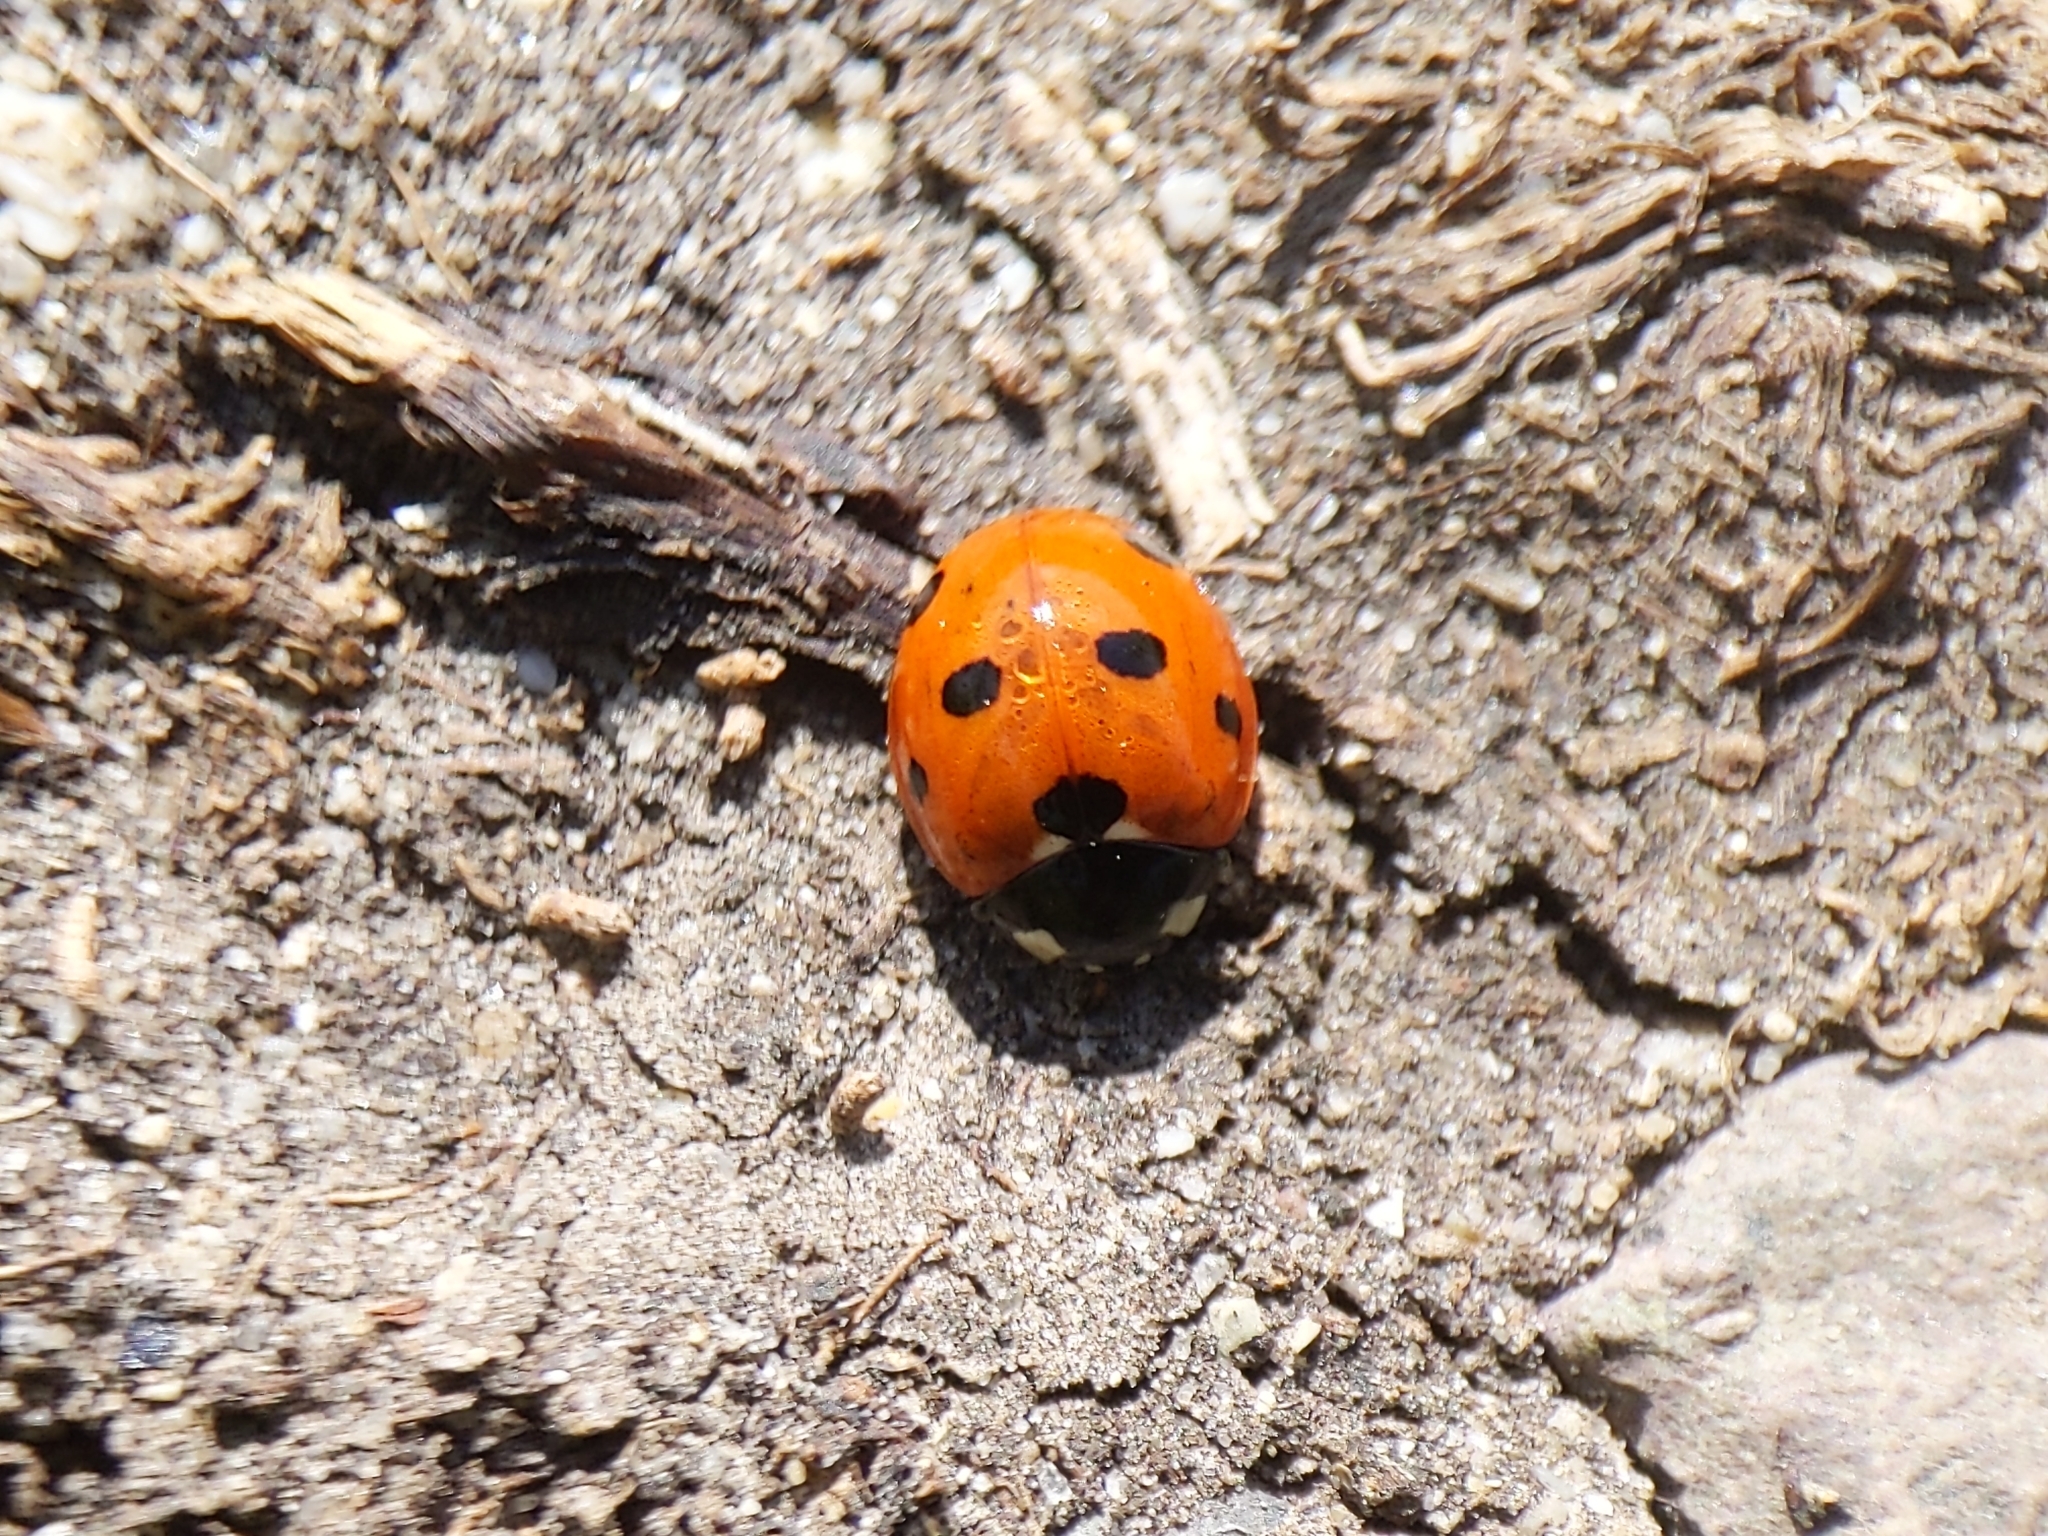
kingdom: Animalia
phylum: Arthropoda
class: Insecta
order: Coleoptera
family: Coccinellidae
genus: Coccinella
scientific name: Coccinella septempunctata
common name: Sevenspotted lady beetle
